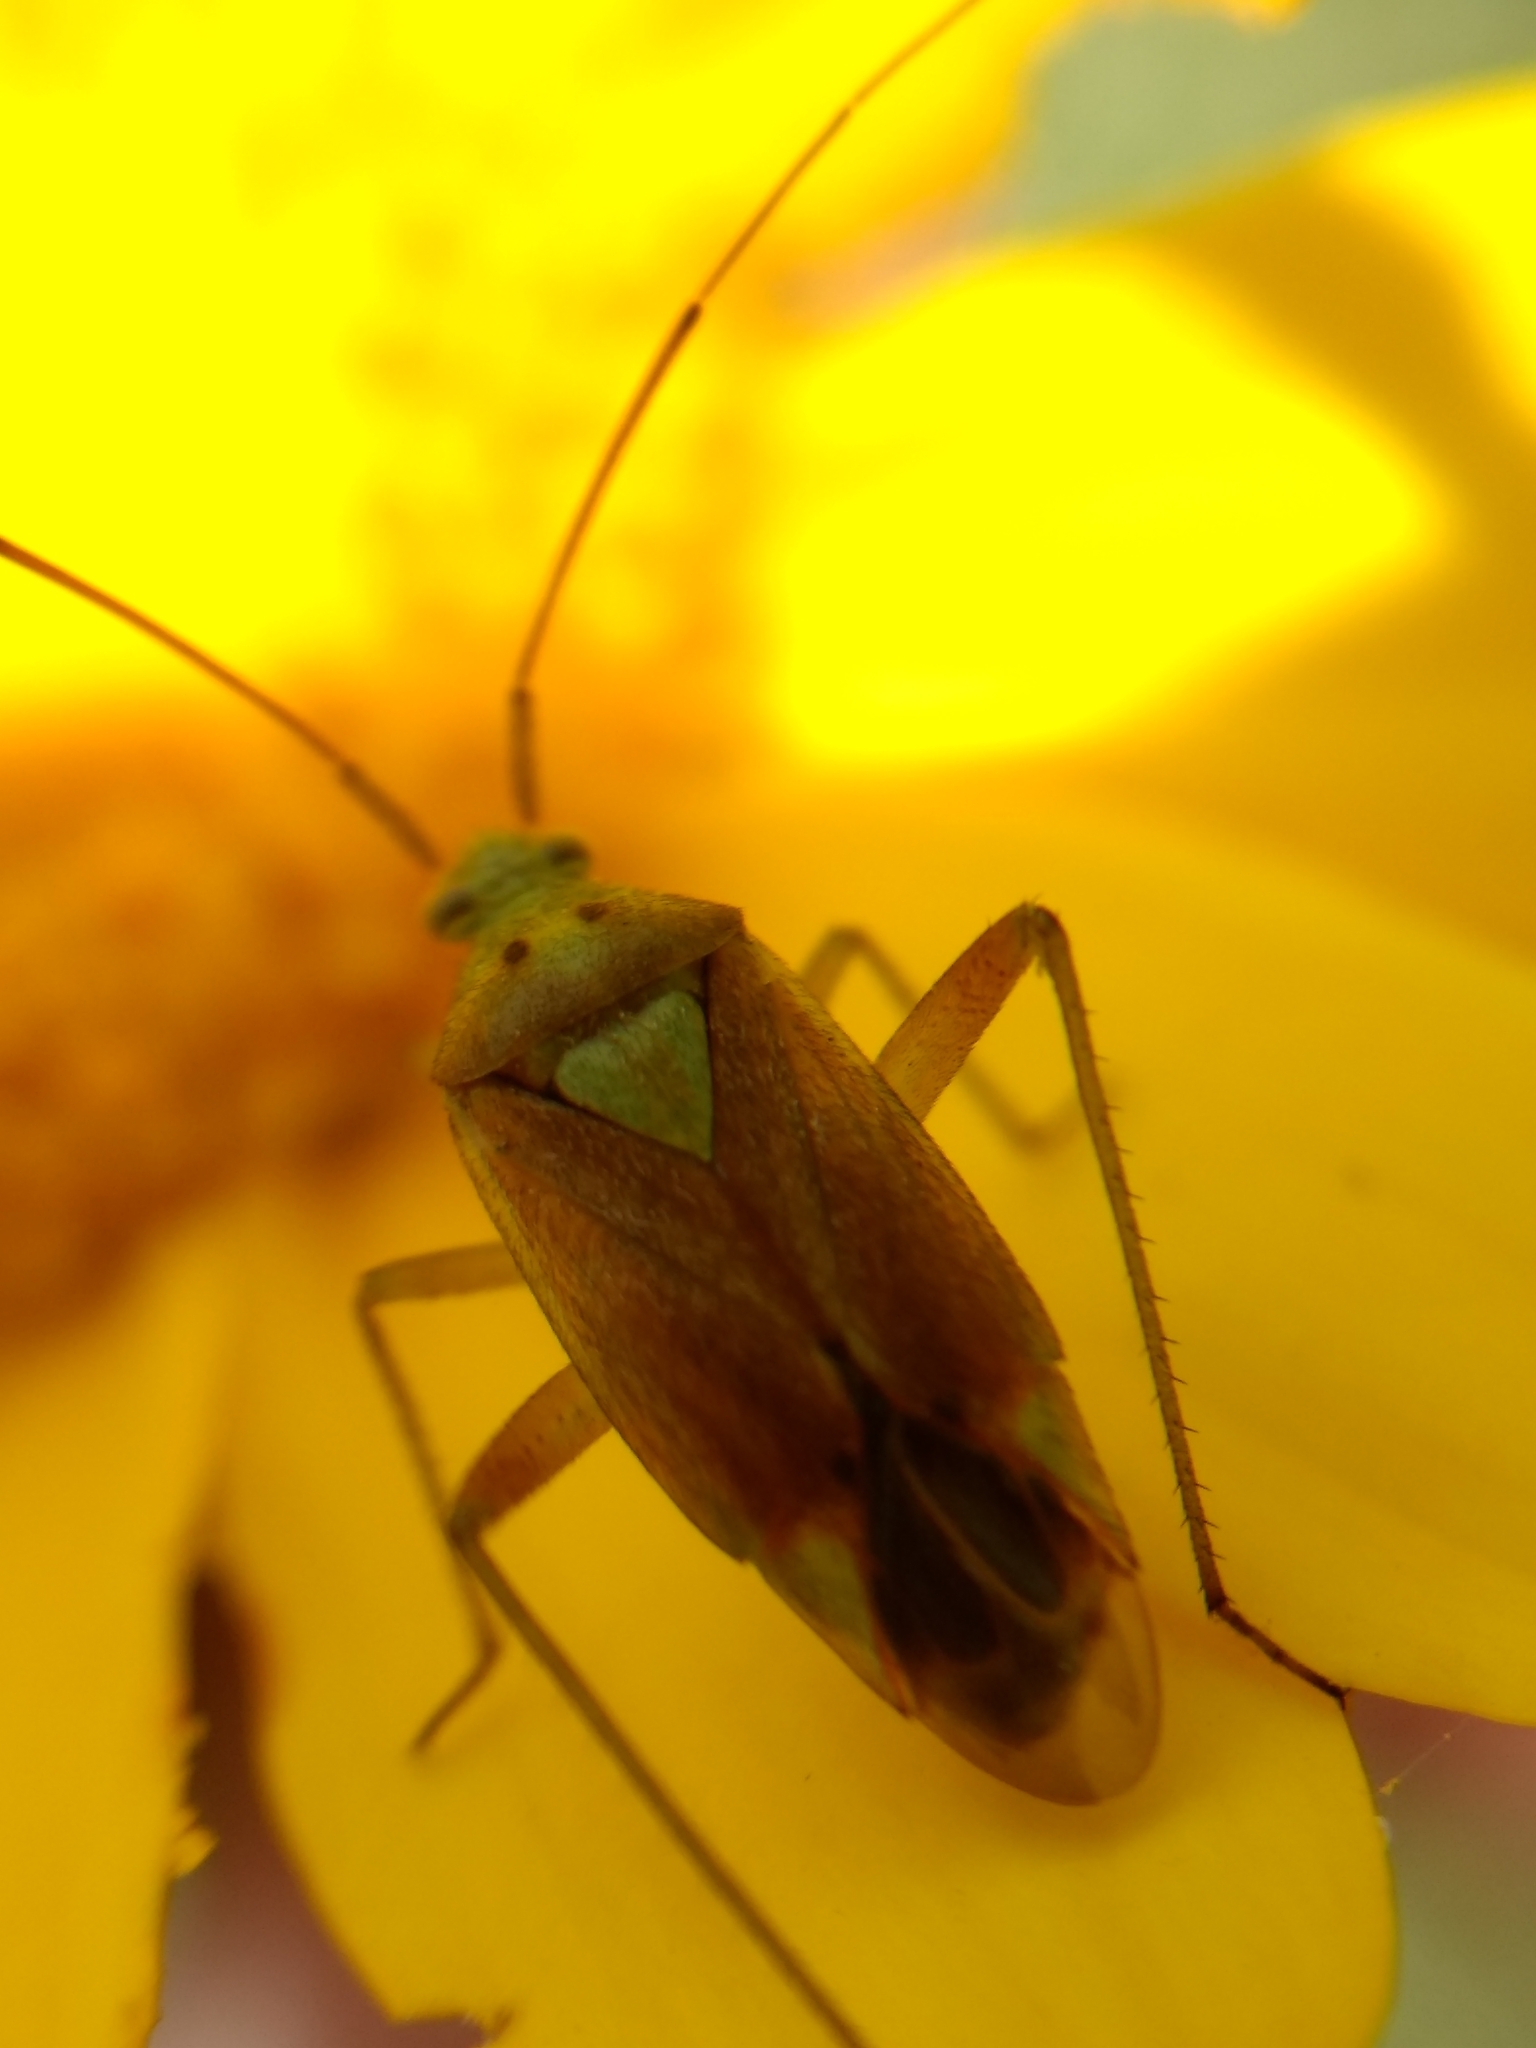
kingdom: Animalia
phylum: Arthropoda
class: Insecta
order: Hemiptera
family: Miridae
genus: Closterotomus
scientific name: Closterotomus norvegicus
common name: Plant bug
